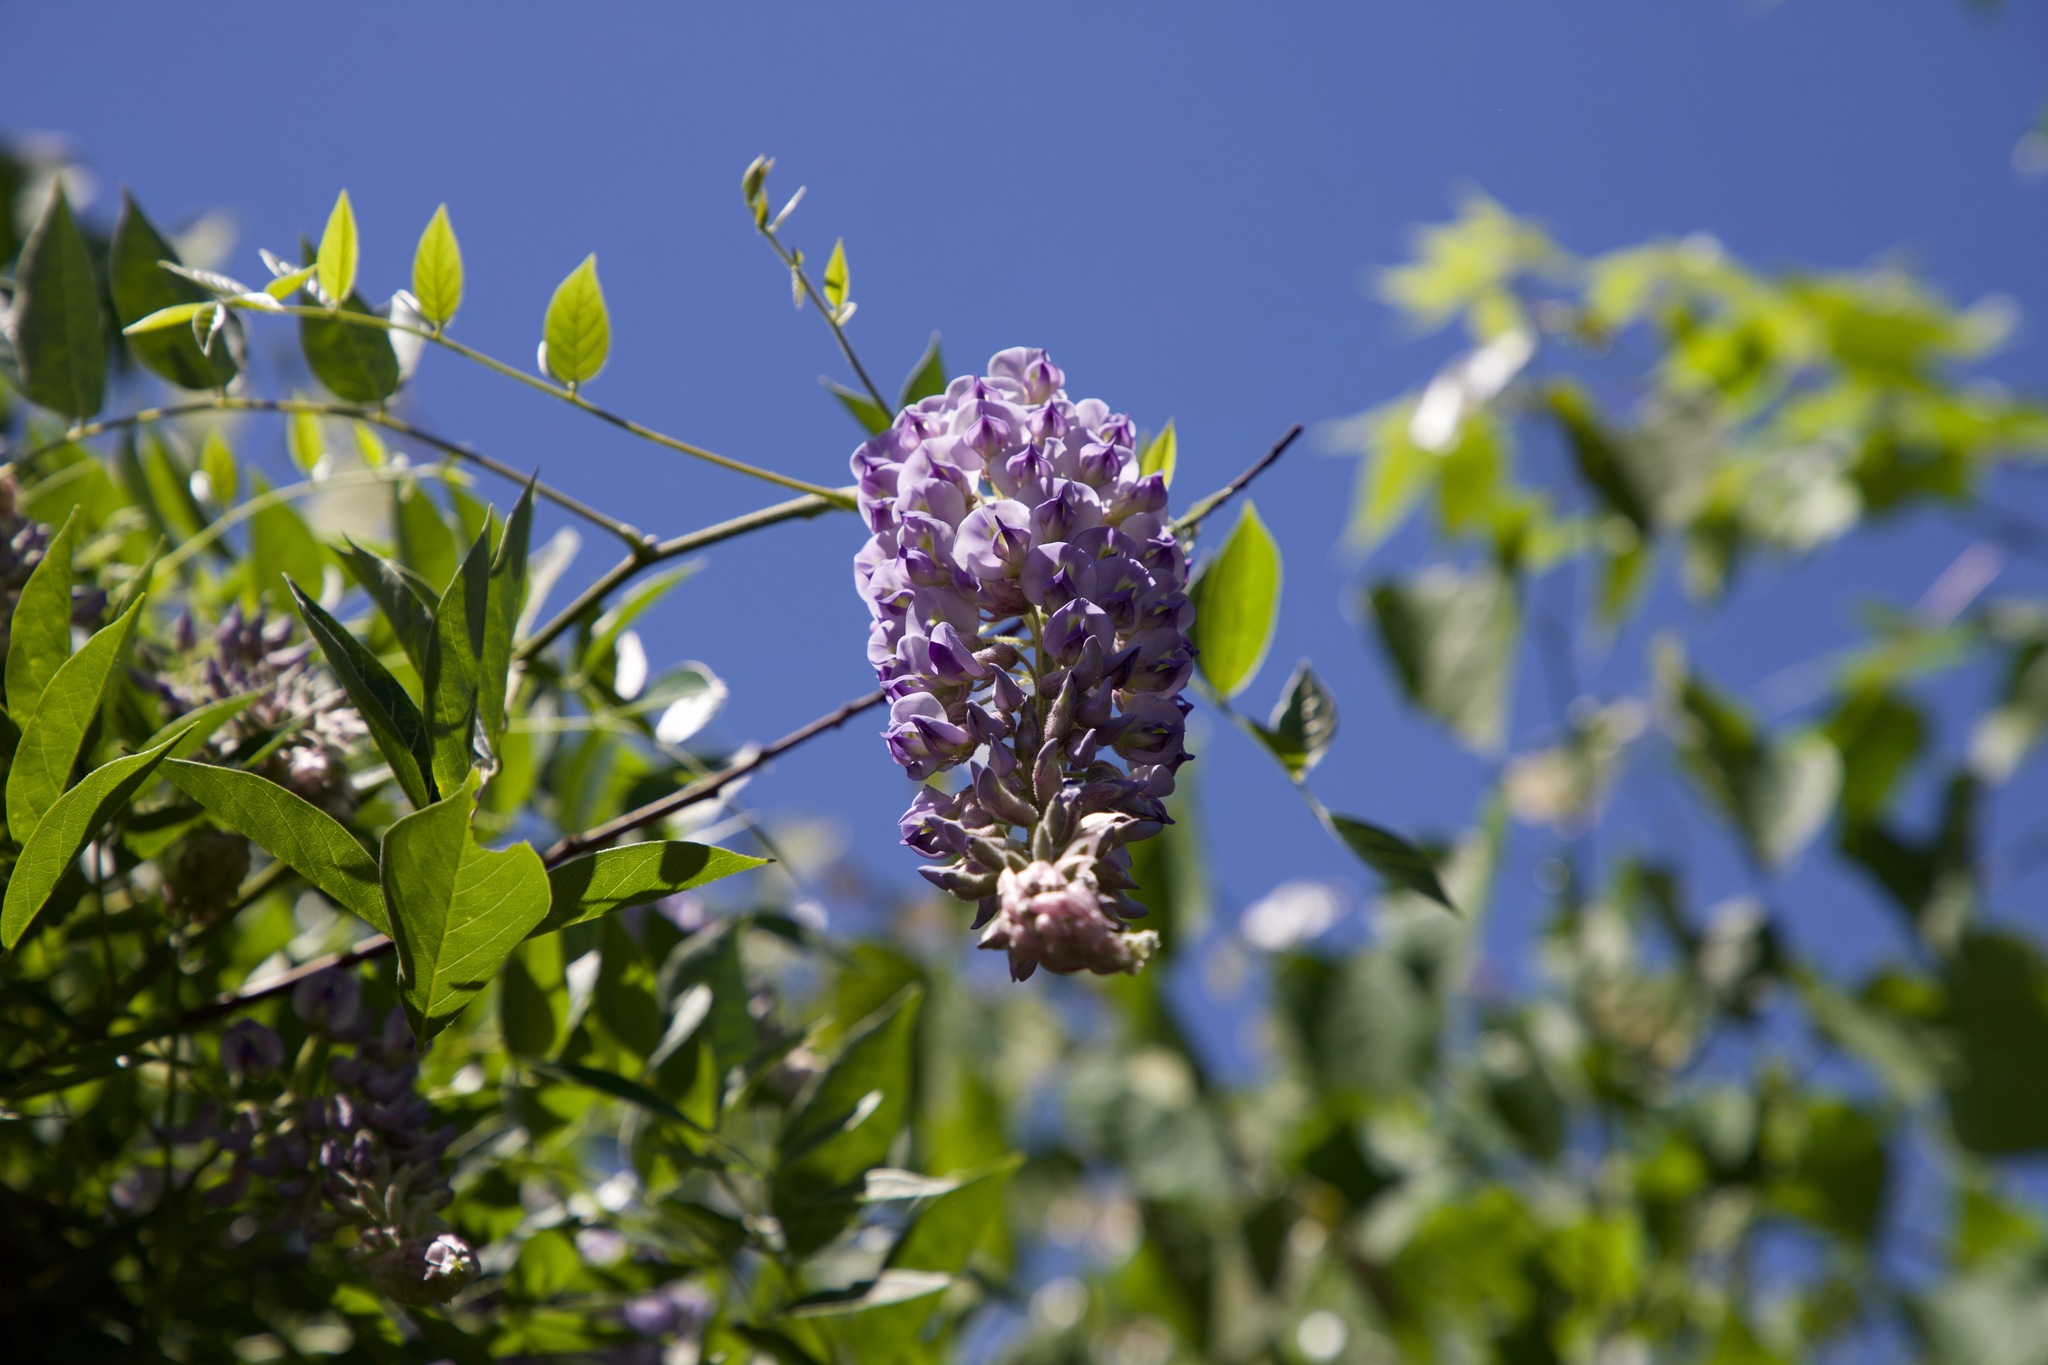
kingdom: Plantae
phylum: Tracheophyta
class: Magnoliopsida
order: Fabales
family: Fabaceae
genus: Wisteria
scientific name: Wisteria frutescens
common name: American wisteria
